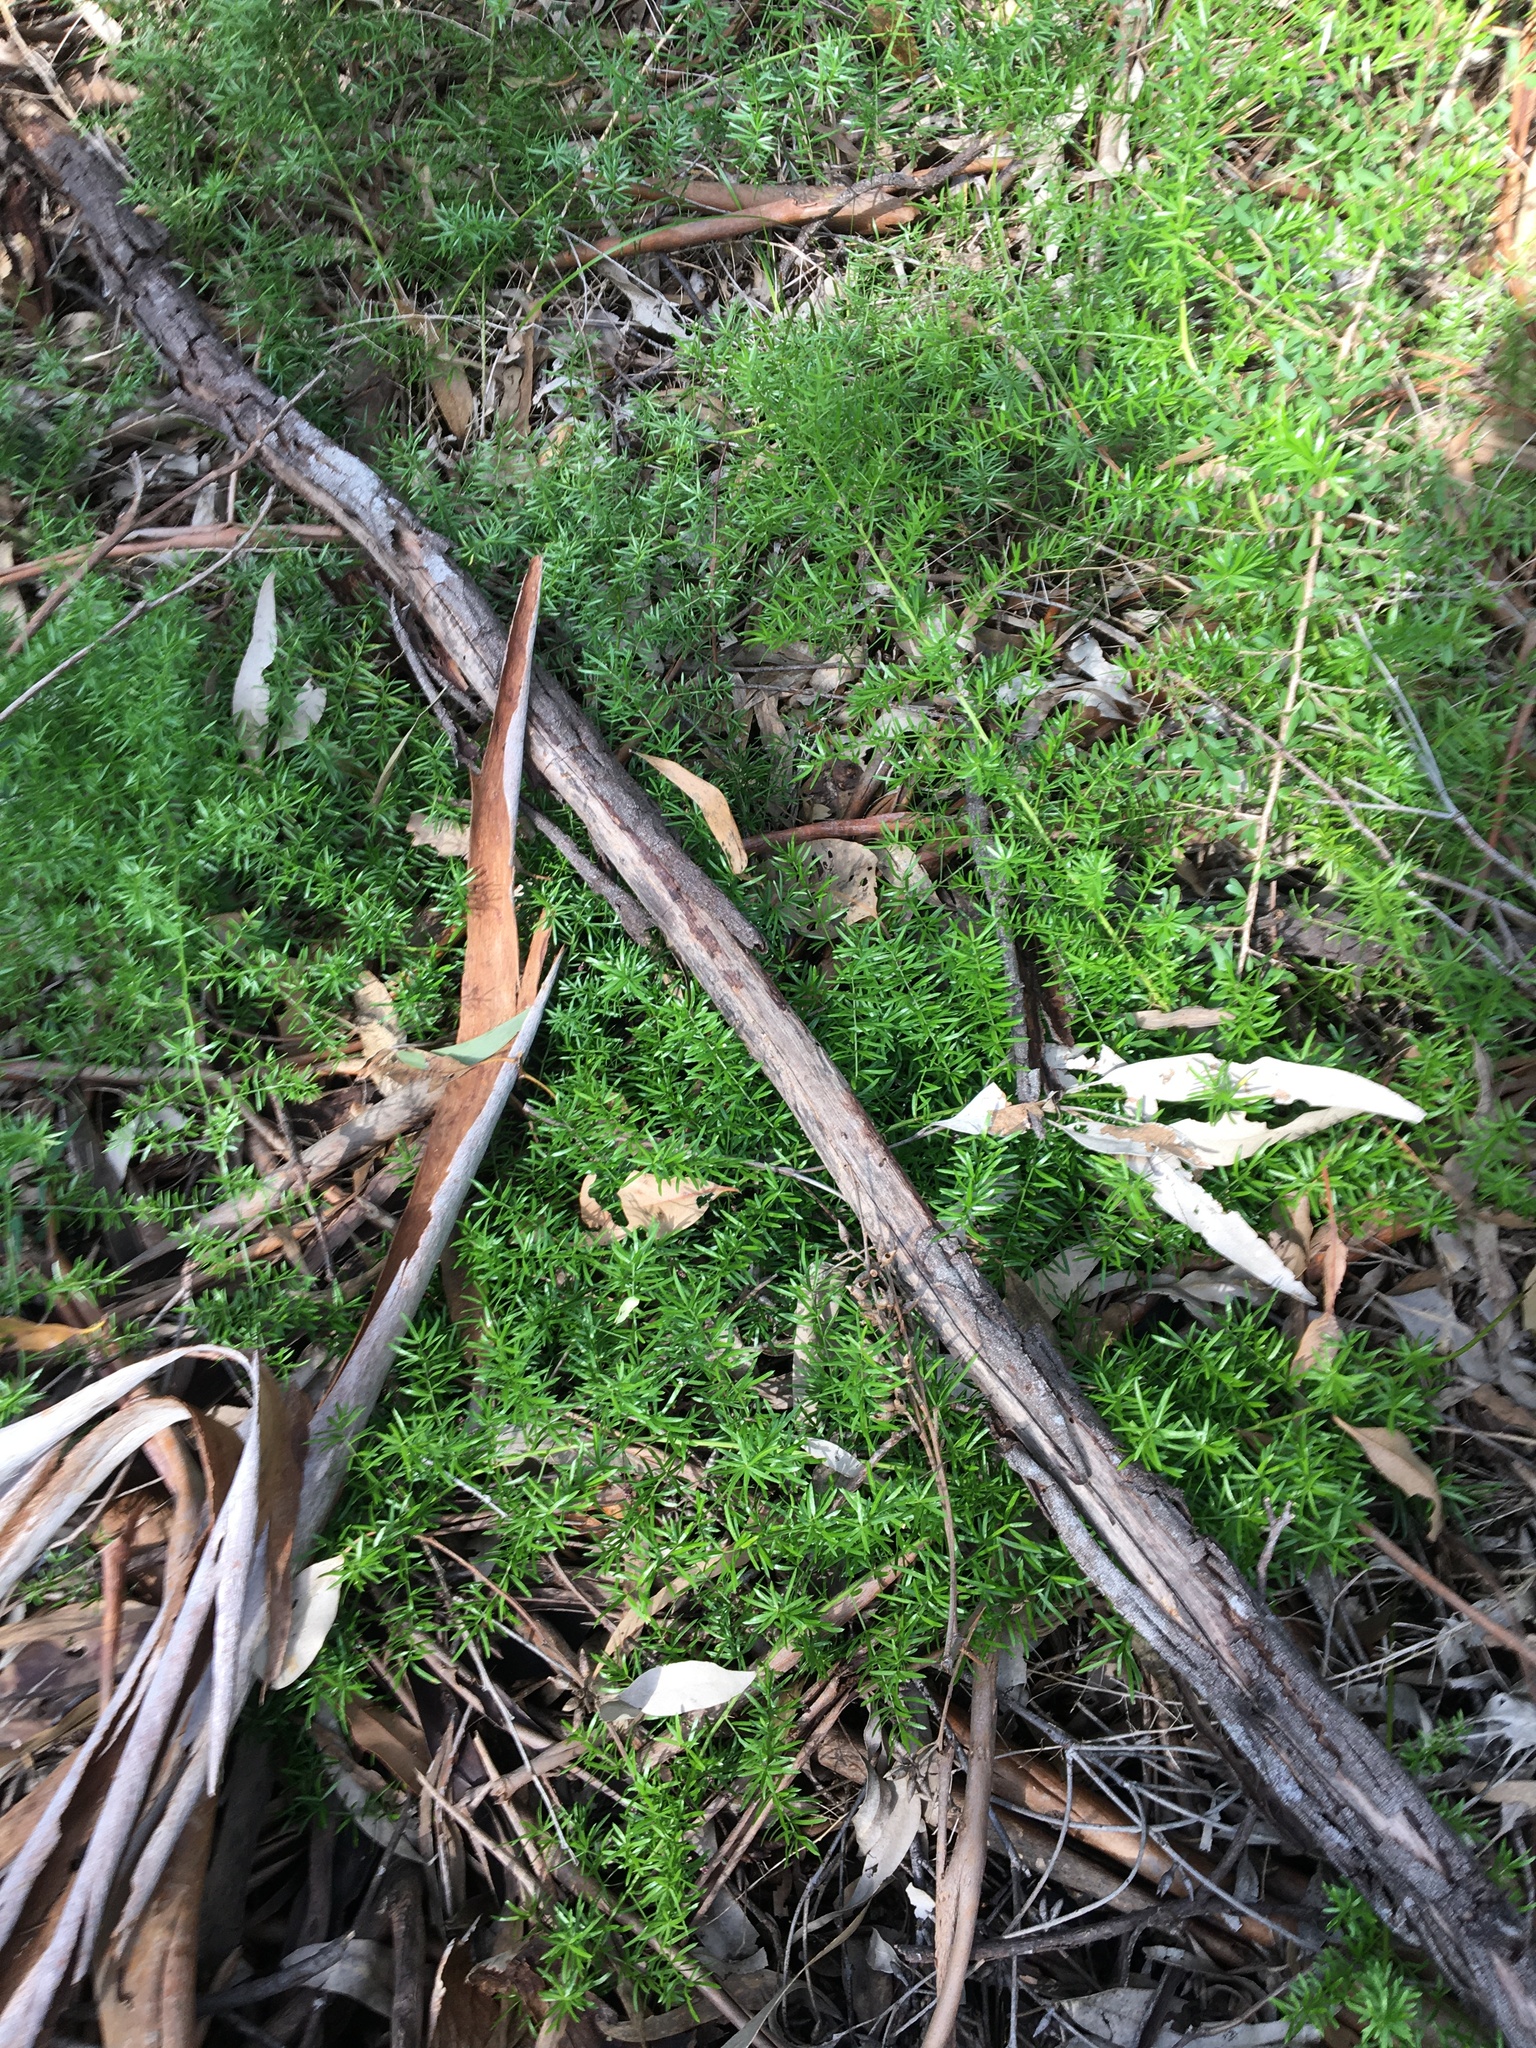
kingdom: Plantae
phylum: Tracheophyta
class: Liliopsida
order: Asparagales
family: Asparagaceae
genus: Asparagus
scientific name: Asparagus aethiopicus
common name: Sprenger's asparagus fern
